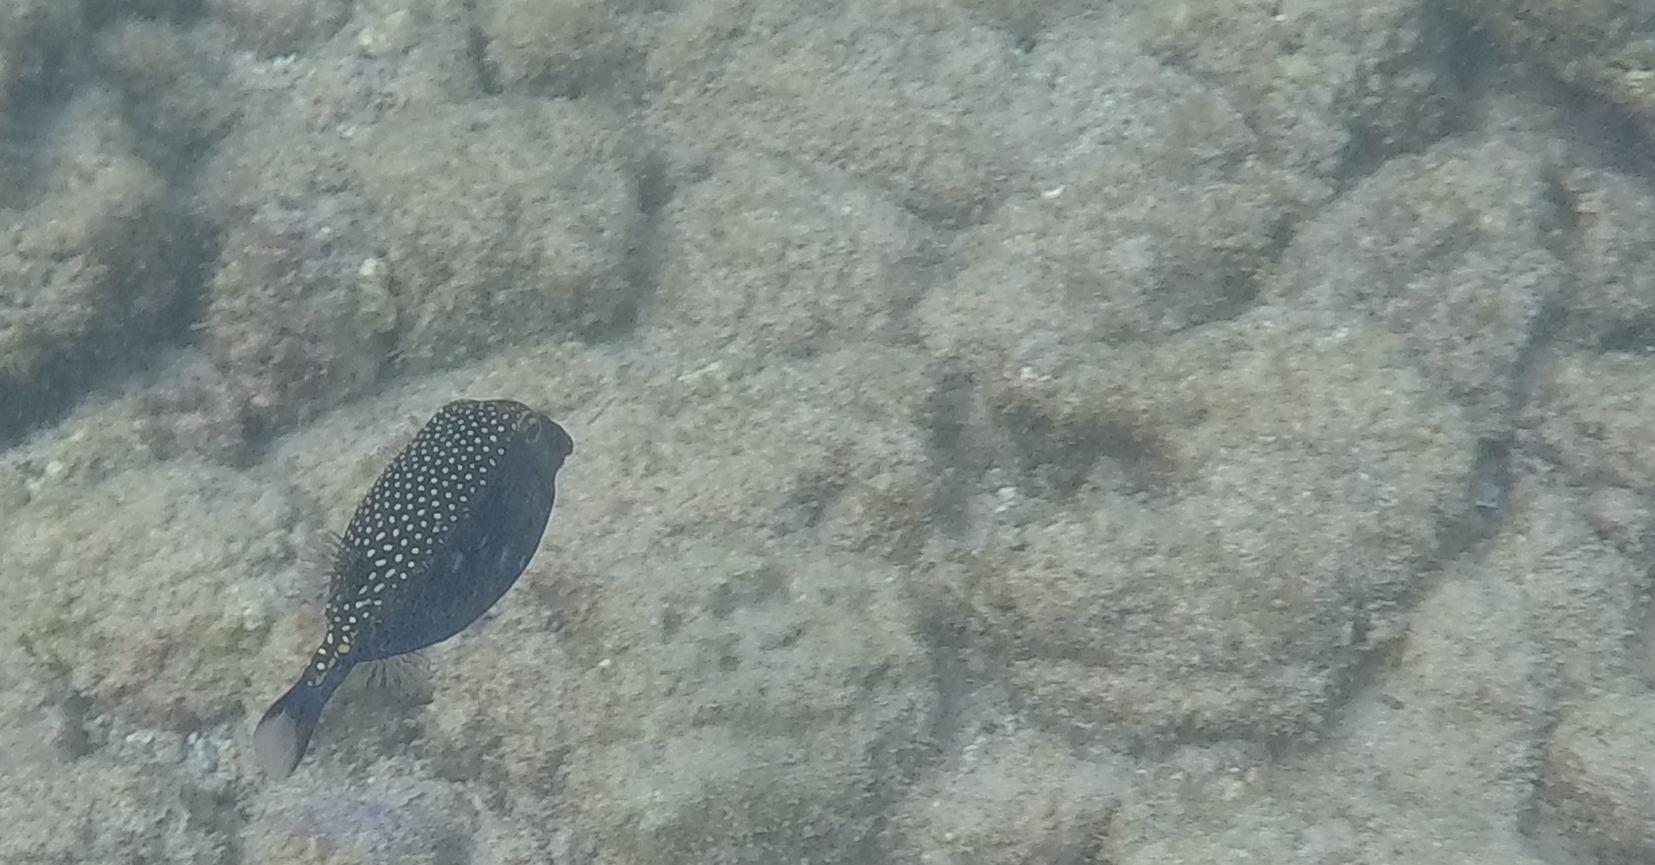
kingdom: Animalia
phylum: Chordata
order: Tetraodontiformes
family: Ostraciidae
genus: Ostracion
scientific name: Ostracion meleagris
